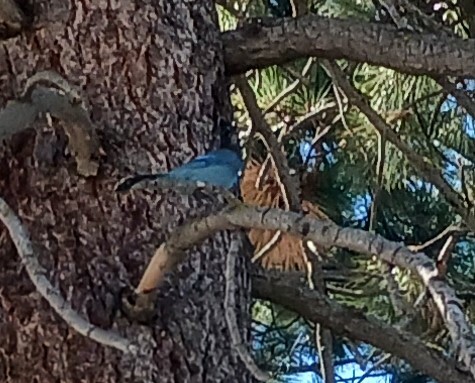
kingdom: Animalia
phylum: Chordata
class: Aves
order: Passeriformes
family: Corvidae
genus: Cyanocitta
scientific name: Cyanocitta stelleri
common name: Steller's jay
